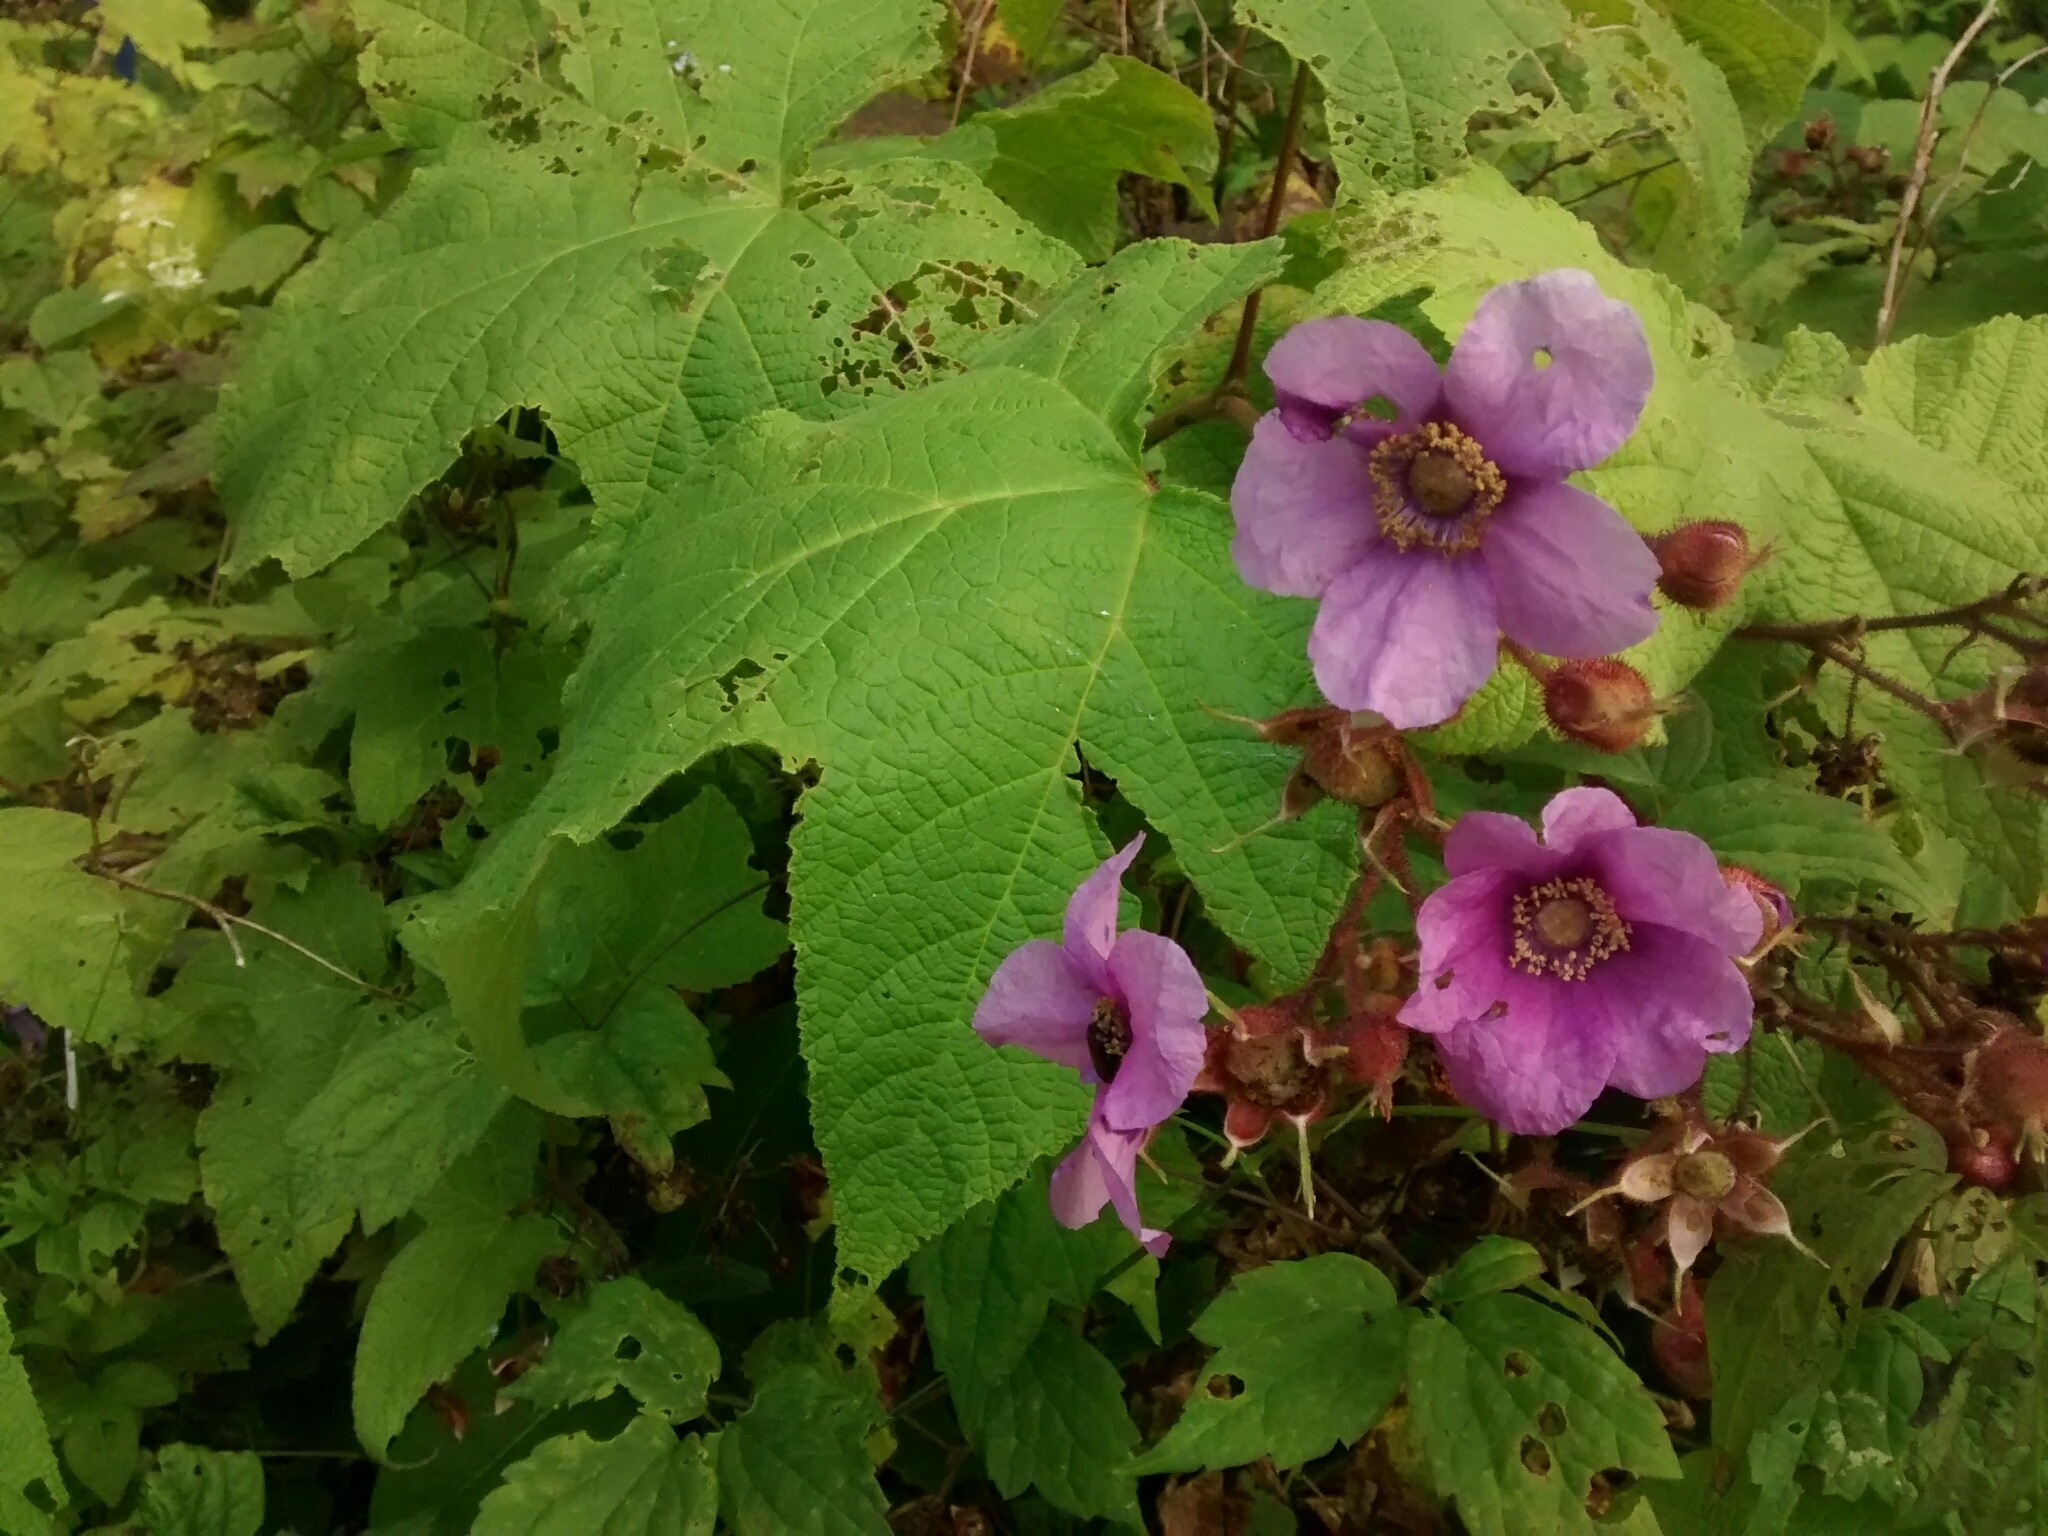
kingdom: Plantae
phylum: Tracheophyta
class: Magnoliopsida
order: Rosales
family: Rosaceae
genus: Rubus
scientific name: Rubus odoratus
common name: Purple-flowered raspberry
